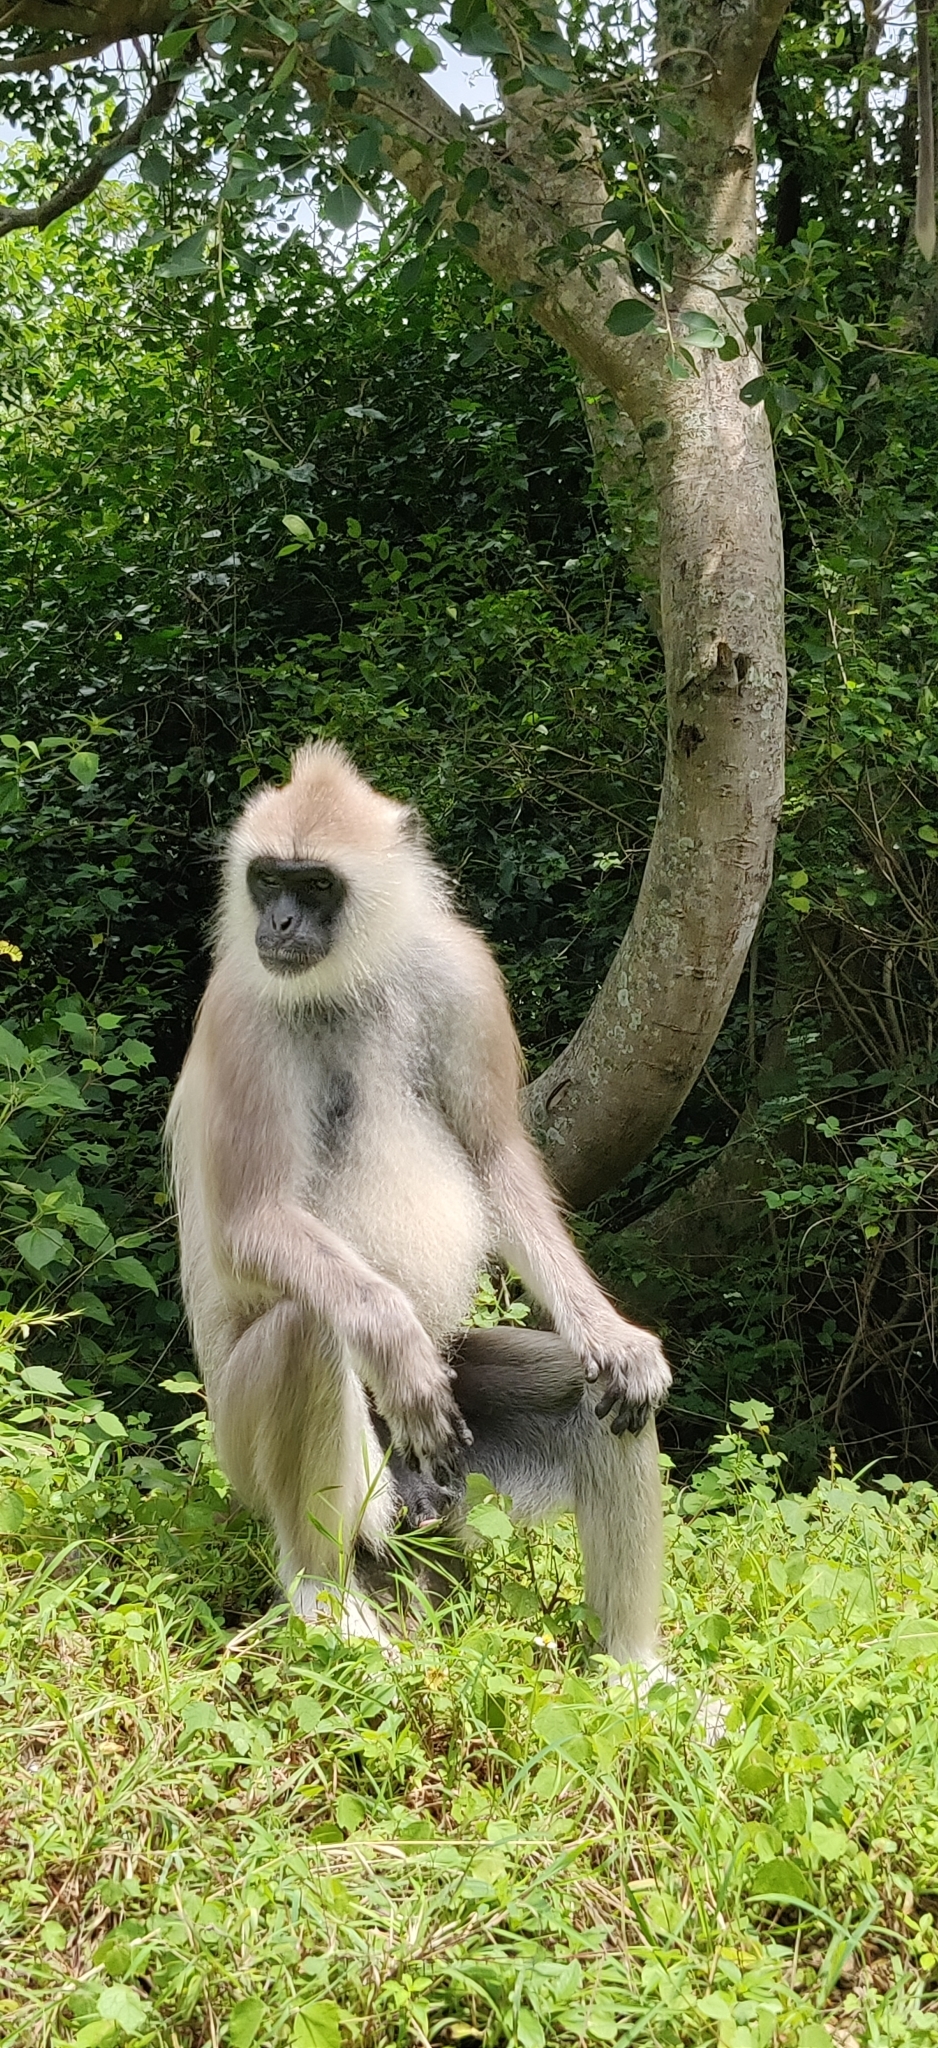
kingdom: Animalia
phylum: Chordata
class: Mammalia
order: Primates
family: Cercopithecidae
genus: Semnopithecus
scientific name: Semnopithecus priam
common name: Tufted gray langur
